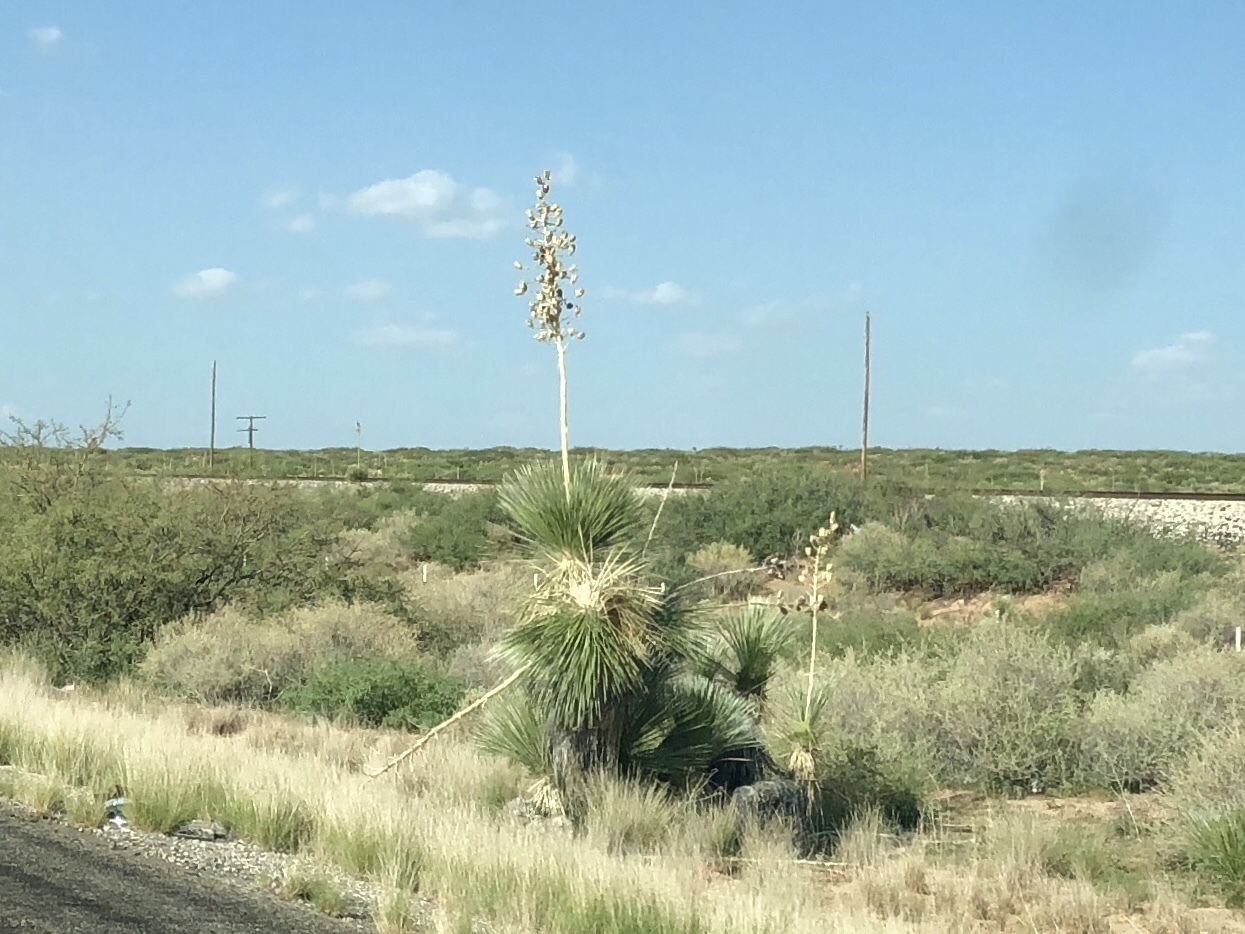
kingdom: Plantae
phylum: Tracheophyta
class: Liliopsida
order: Asparagales
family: Asparagaceae
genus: Yucca
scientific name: Yucca elata
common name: Palmella
